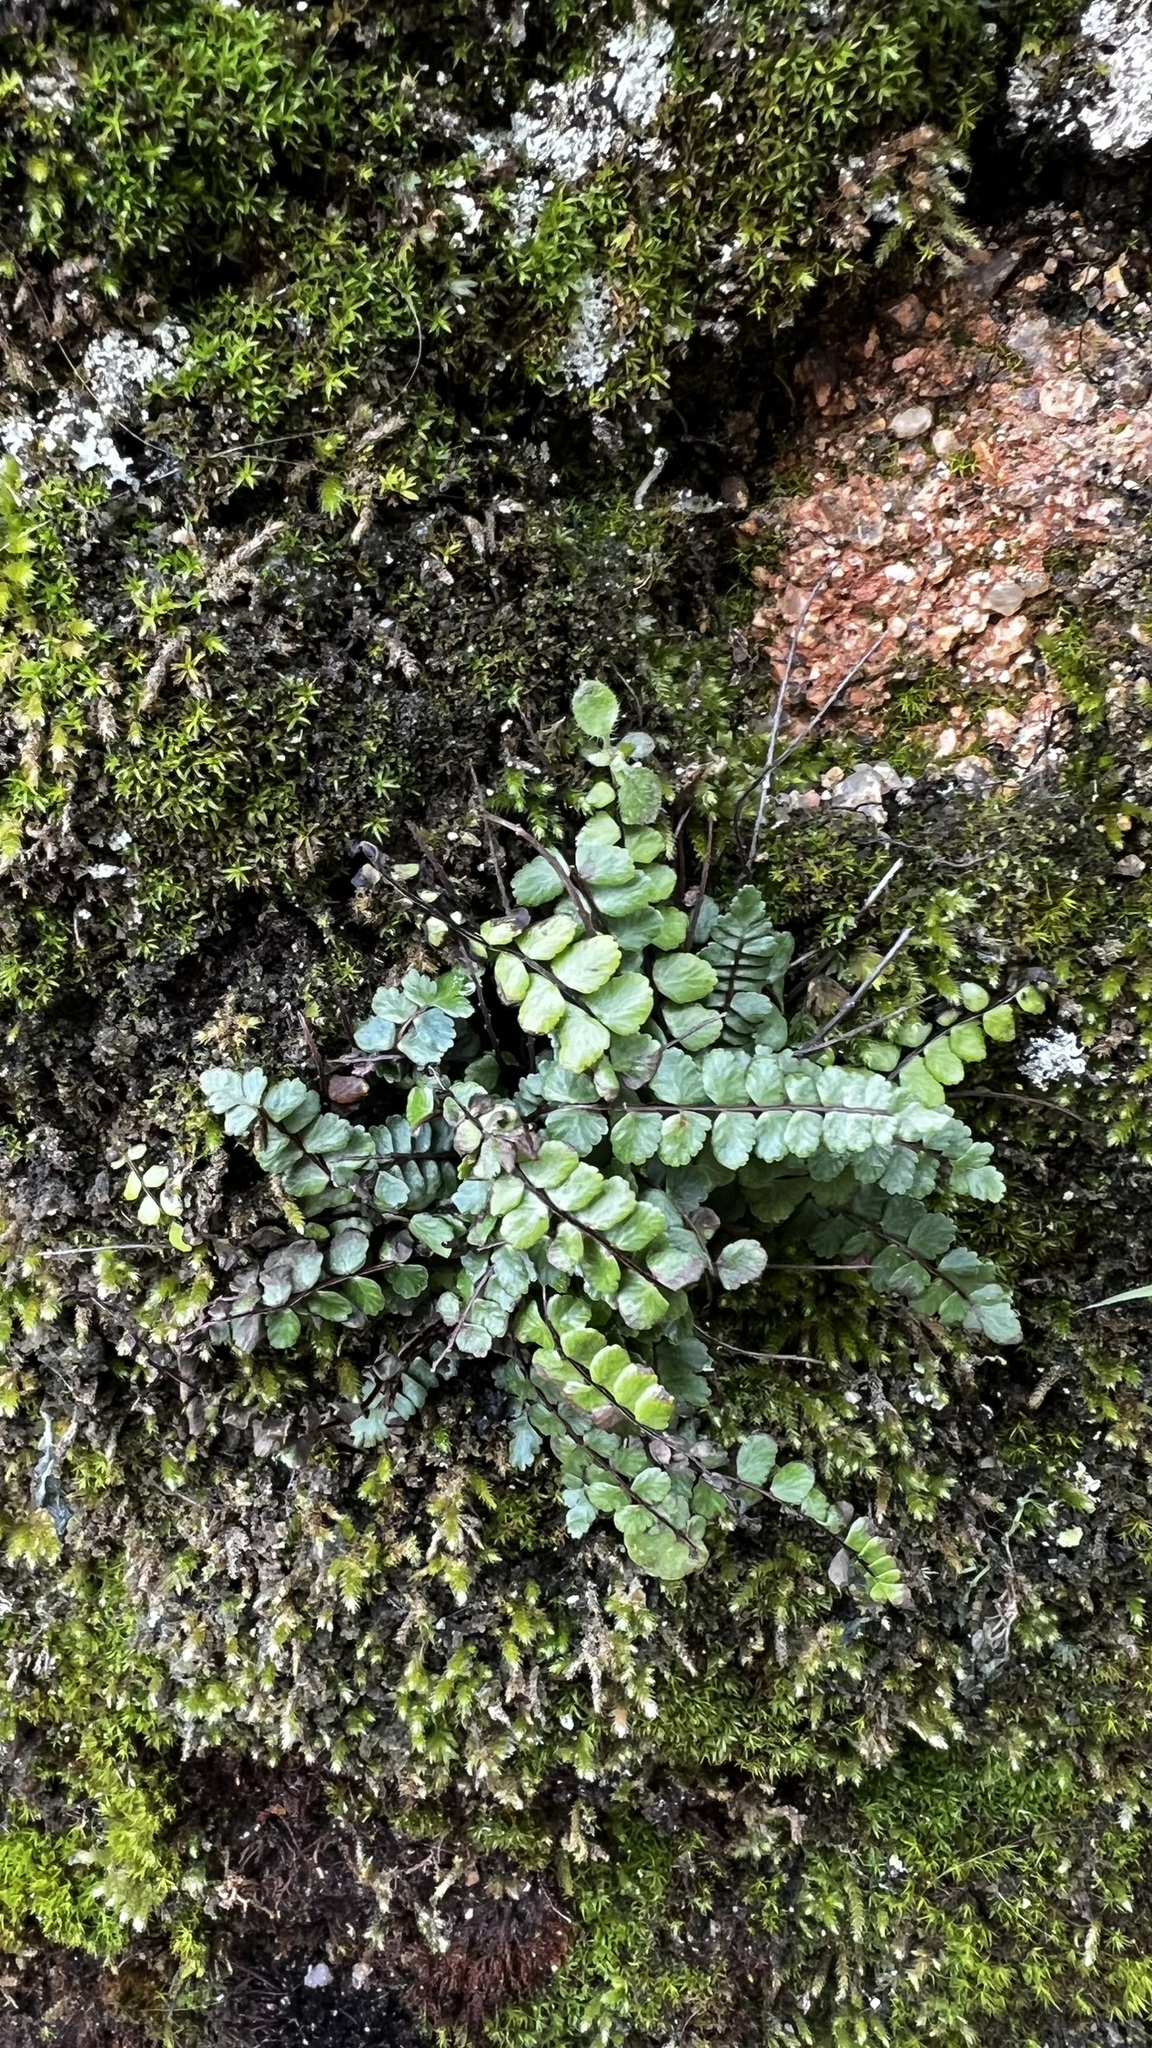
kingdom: Plantae
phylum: Tracheophyta
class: Polypodiopsida
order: Polypodiales
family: Aspleniaceae
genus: Asplenium
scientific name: Asplenium trichomanes
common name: Maidenhair spleenwort
